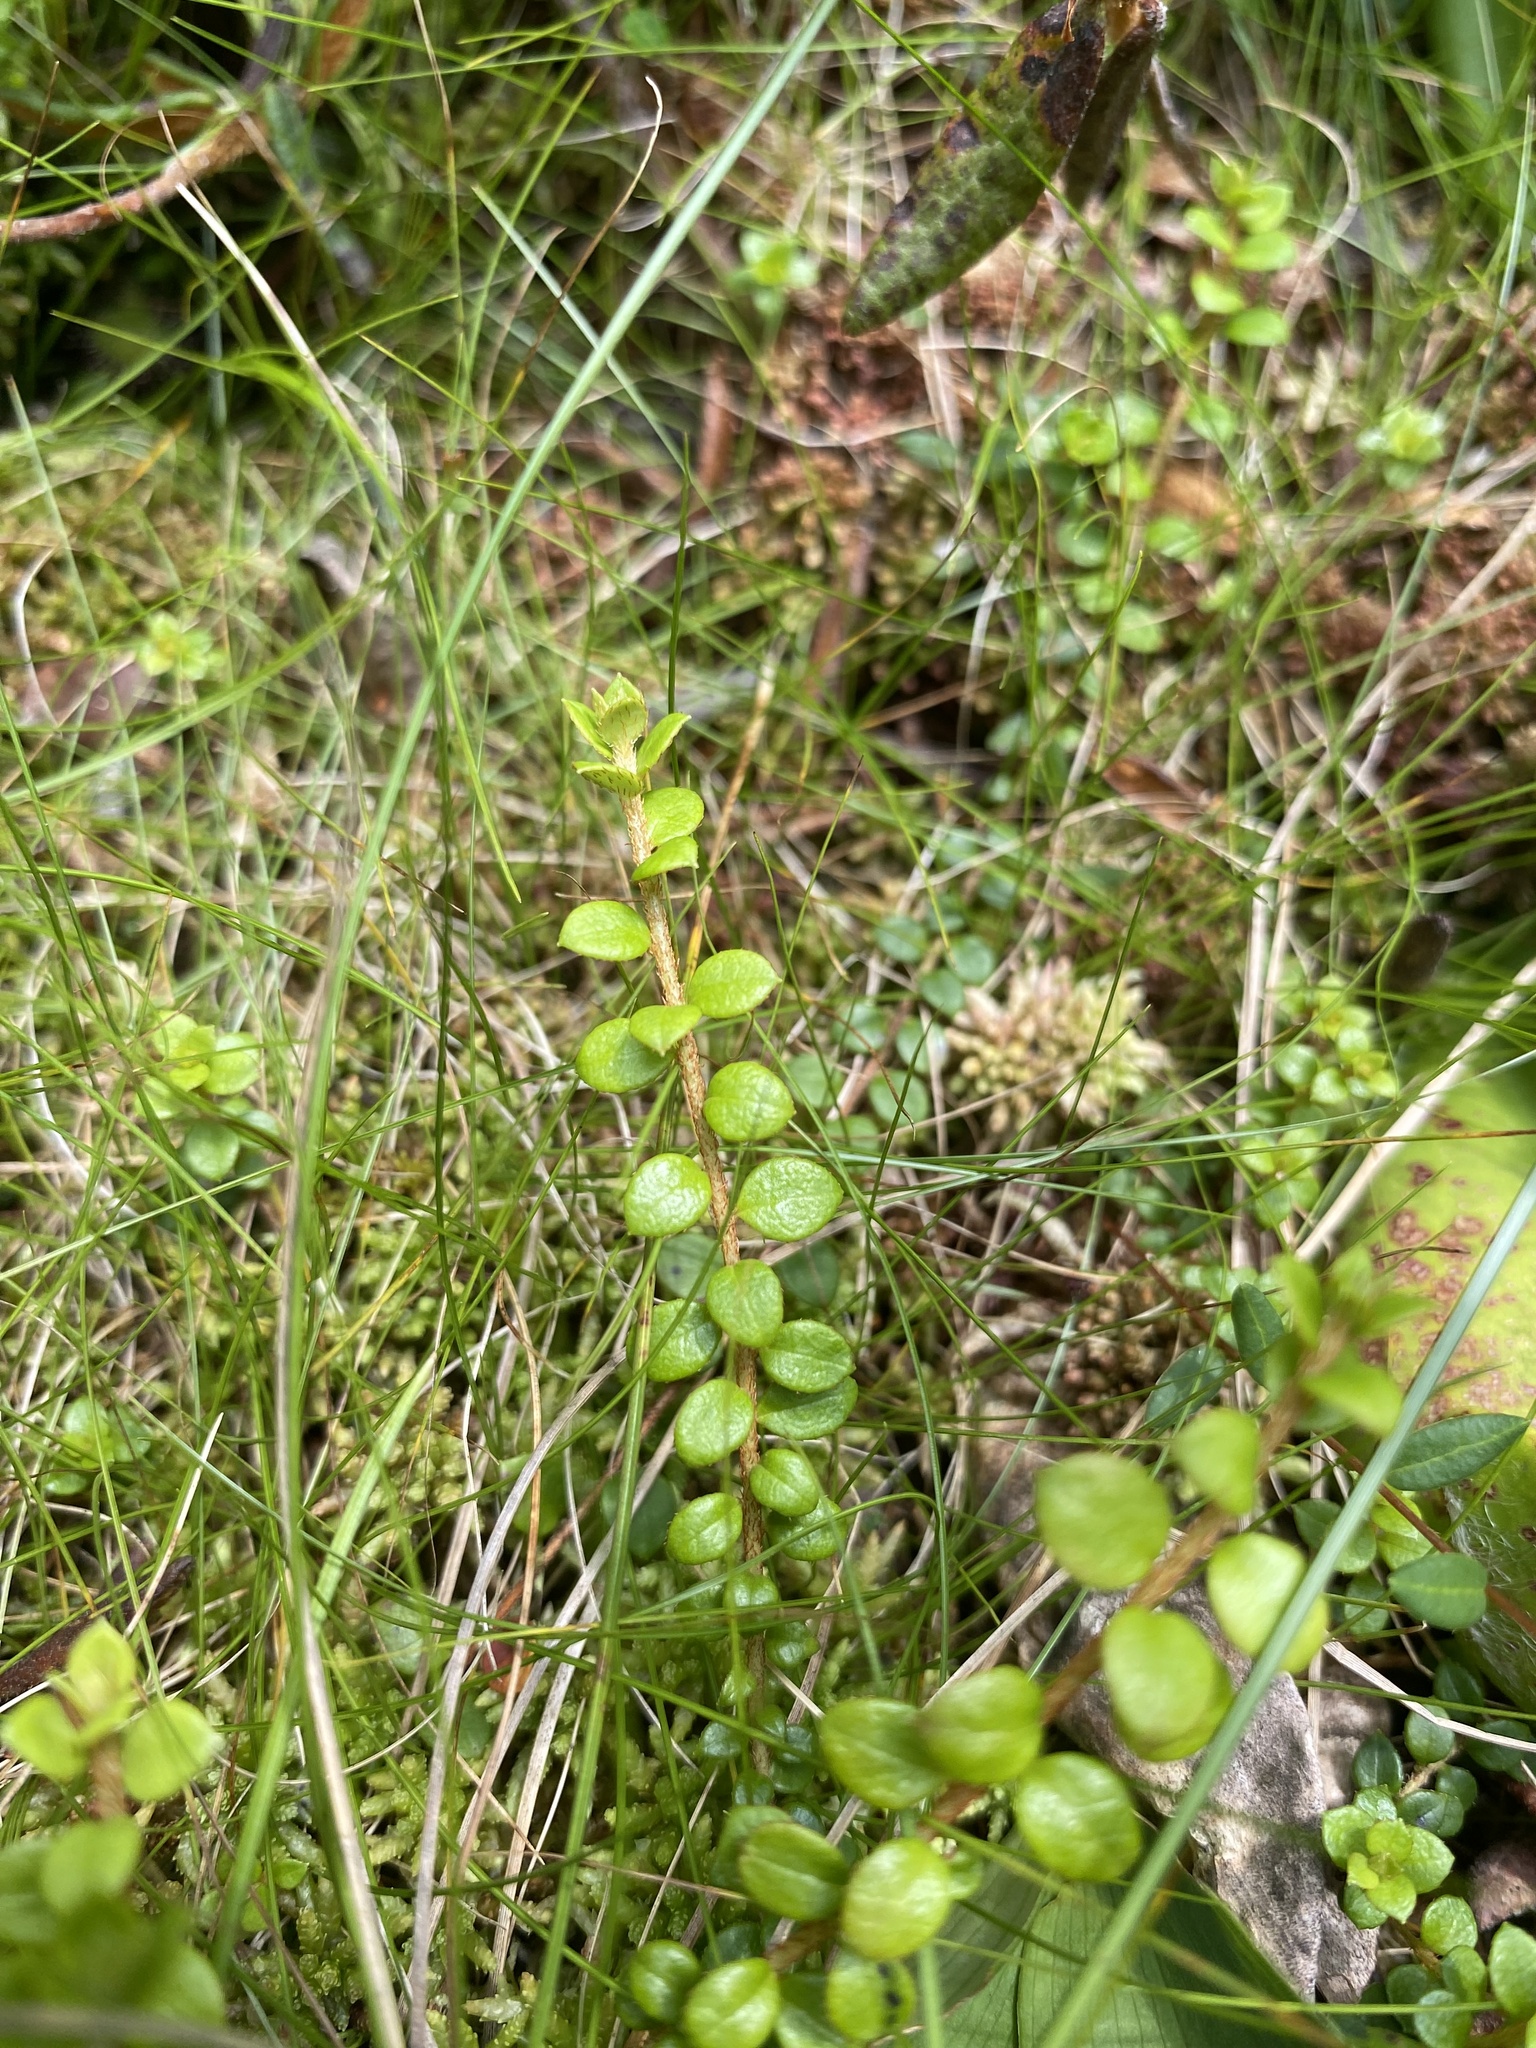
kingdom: Plantae
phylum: Tracheophyta
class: Magnoliopsida
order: Ericales
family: Ericaceae
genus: Gaultheria
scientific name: Gaultheria hispidula
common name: Cancer wintergreen
